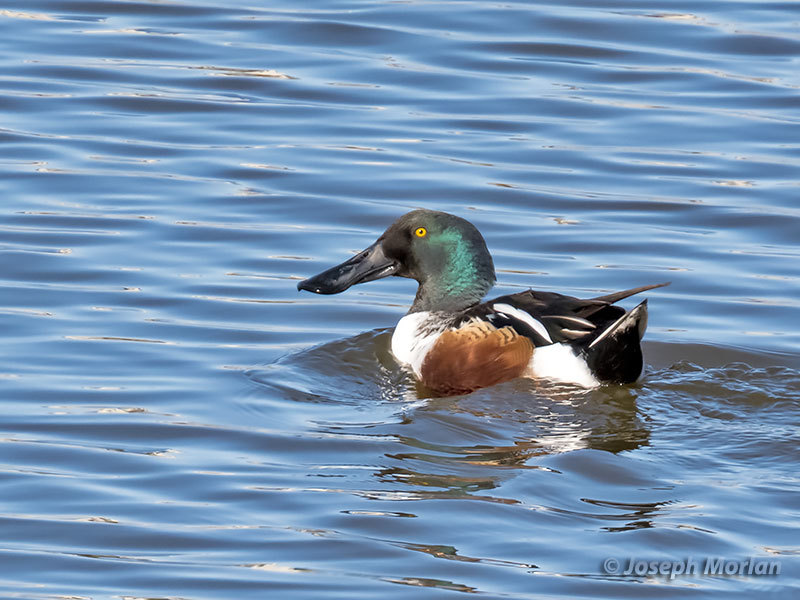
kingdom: Animalia
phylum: Chordata
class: Aves
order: Anseriformes
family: Anatidae
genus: Spatula
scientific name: Spatula clypeata
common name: Northern shoveler
